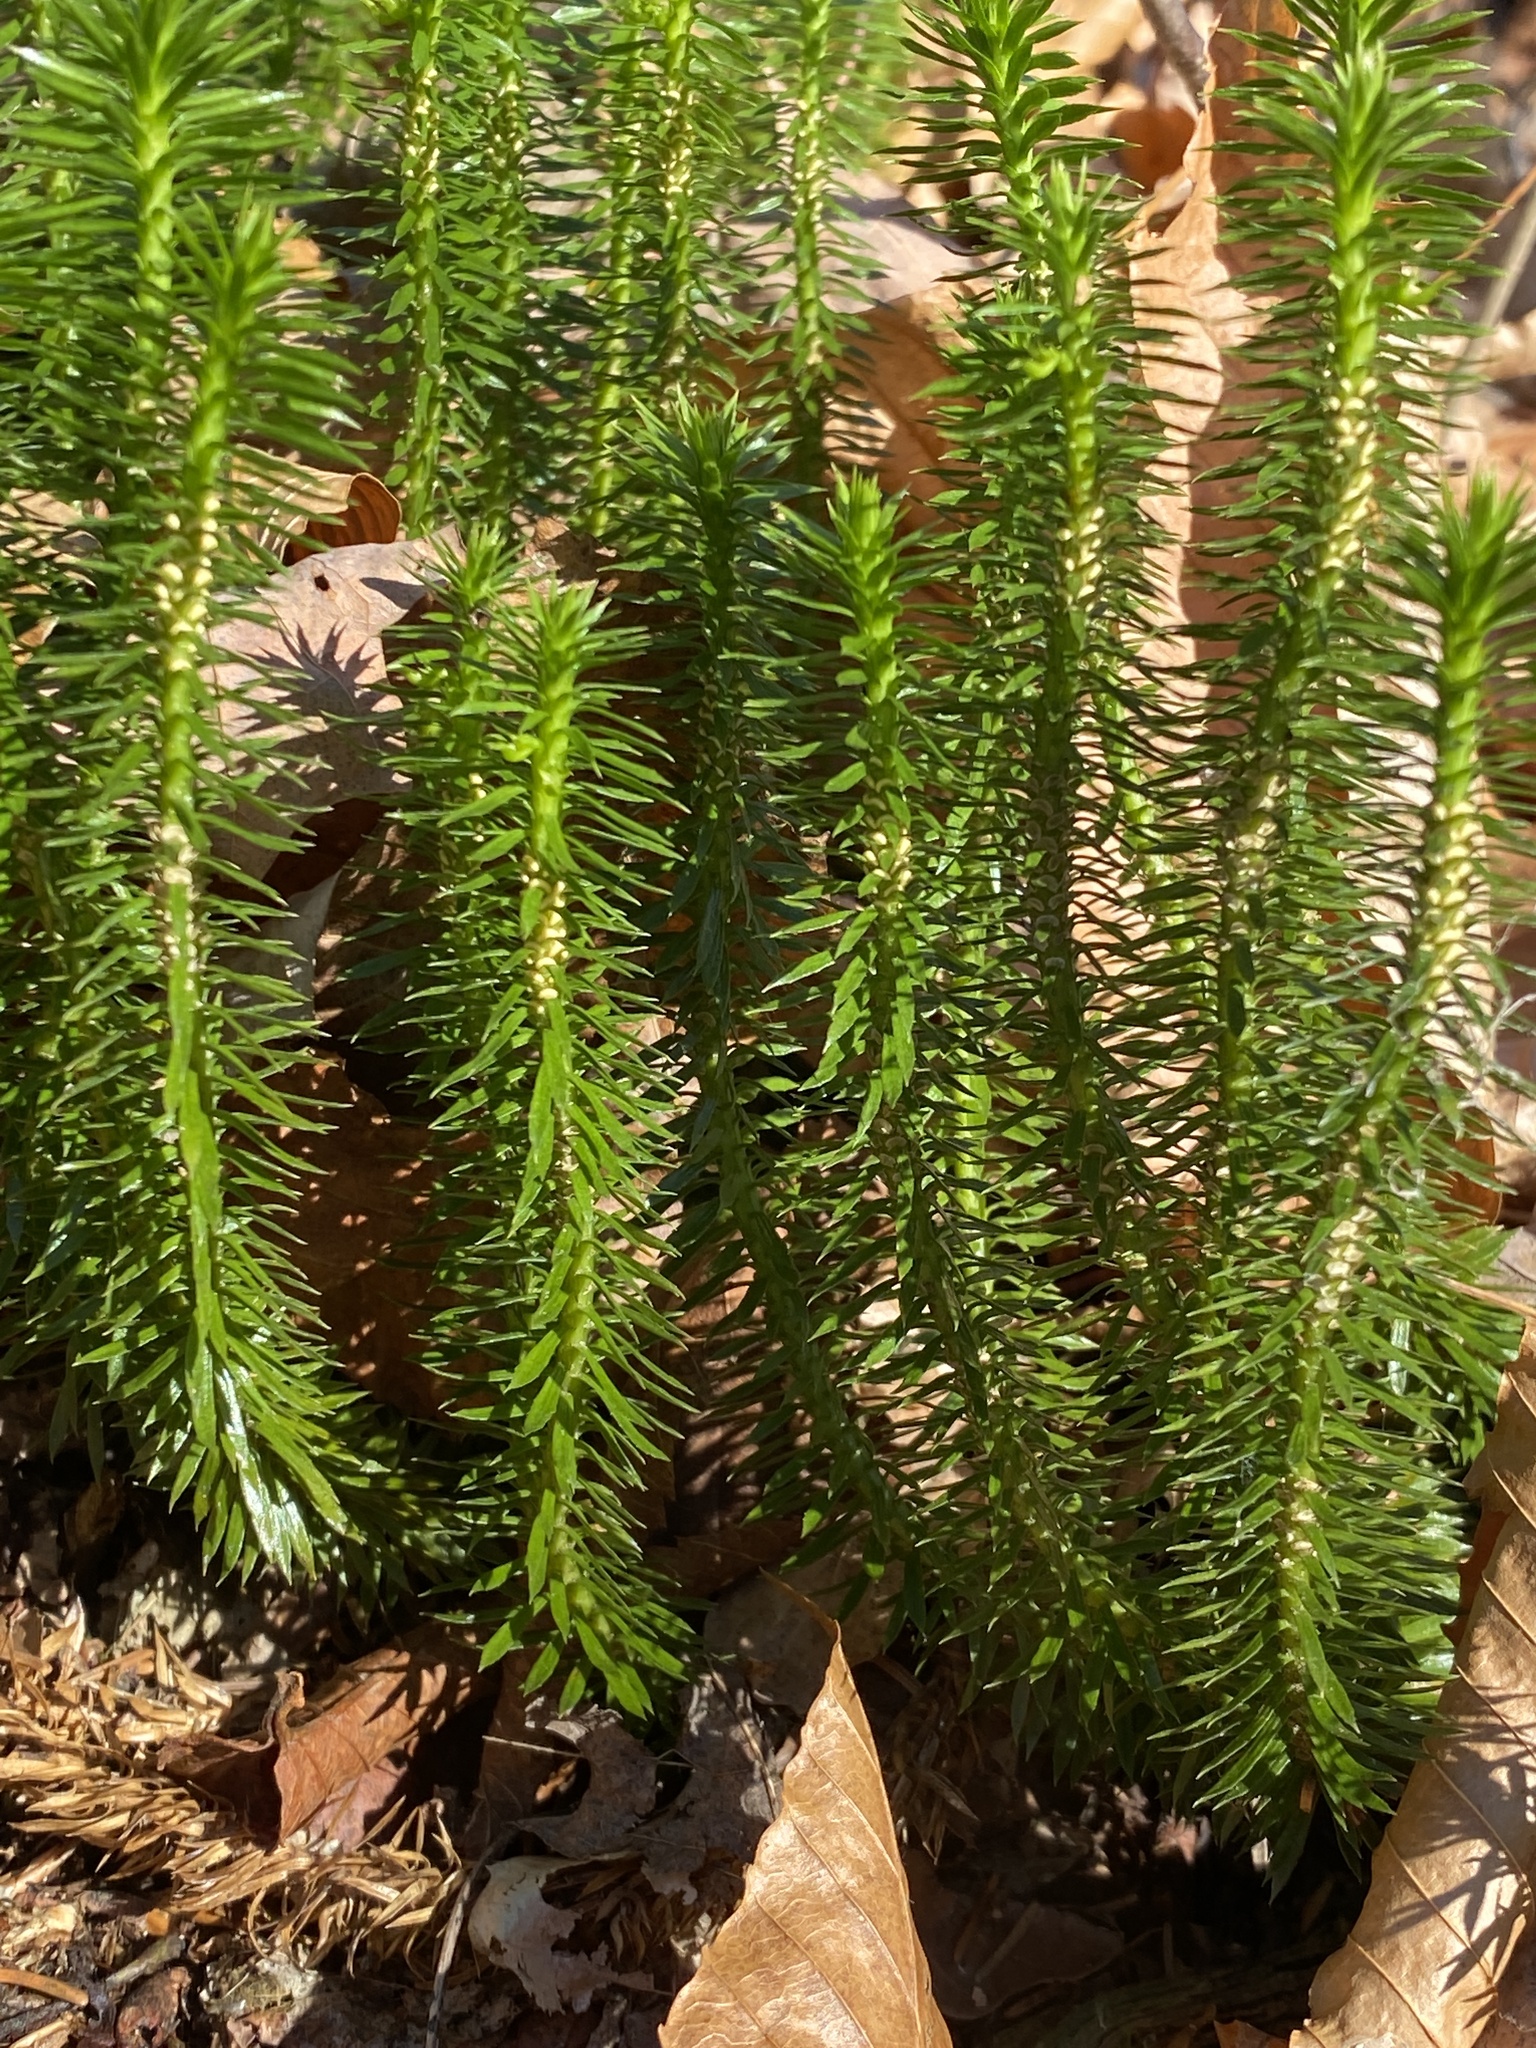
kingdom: Plantae
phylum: Tracheophyta
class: Lycopodiopsida
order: Lycopodiales
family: Lycopodiaceae
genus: Huperzia
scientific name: Huperzia lucidula
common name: Shining clubmoss
